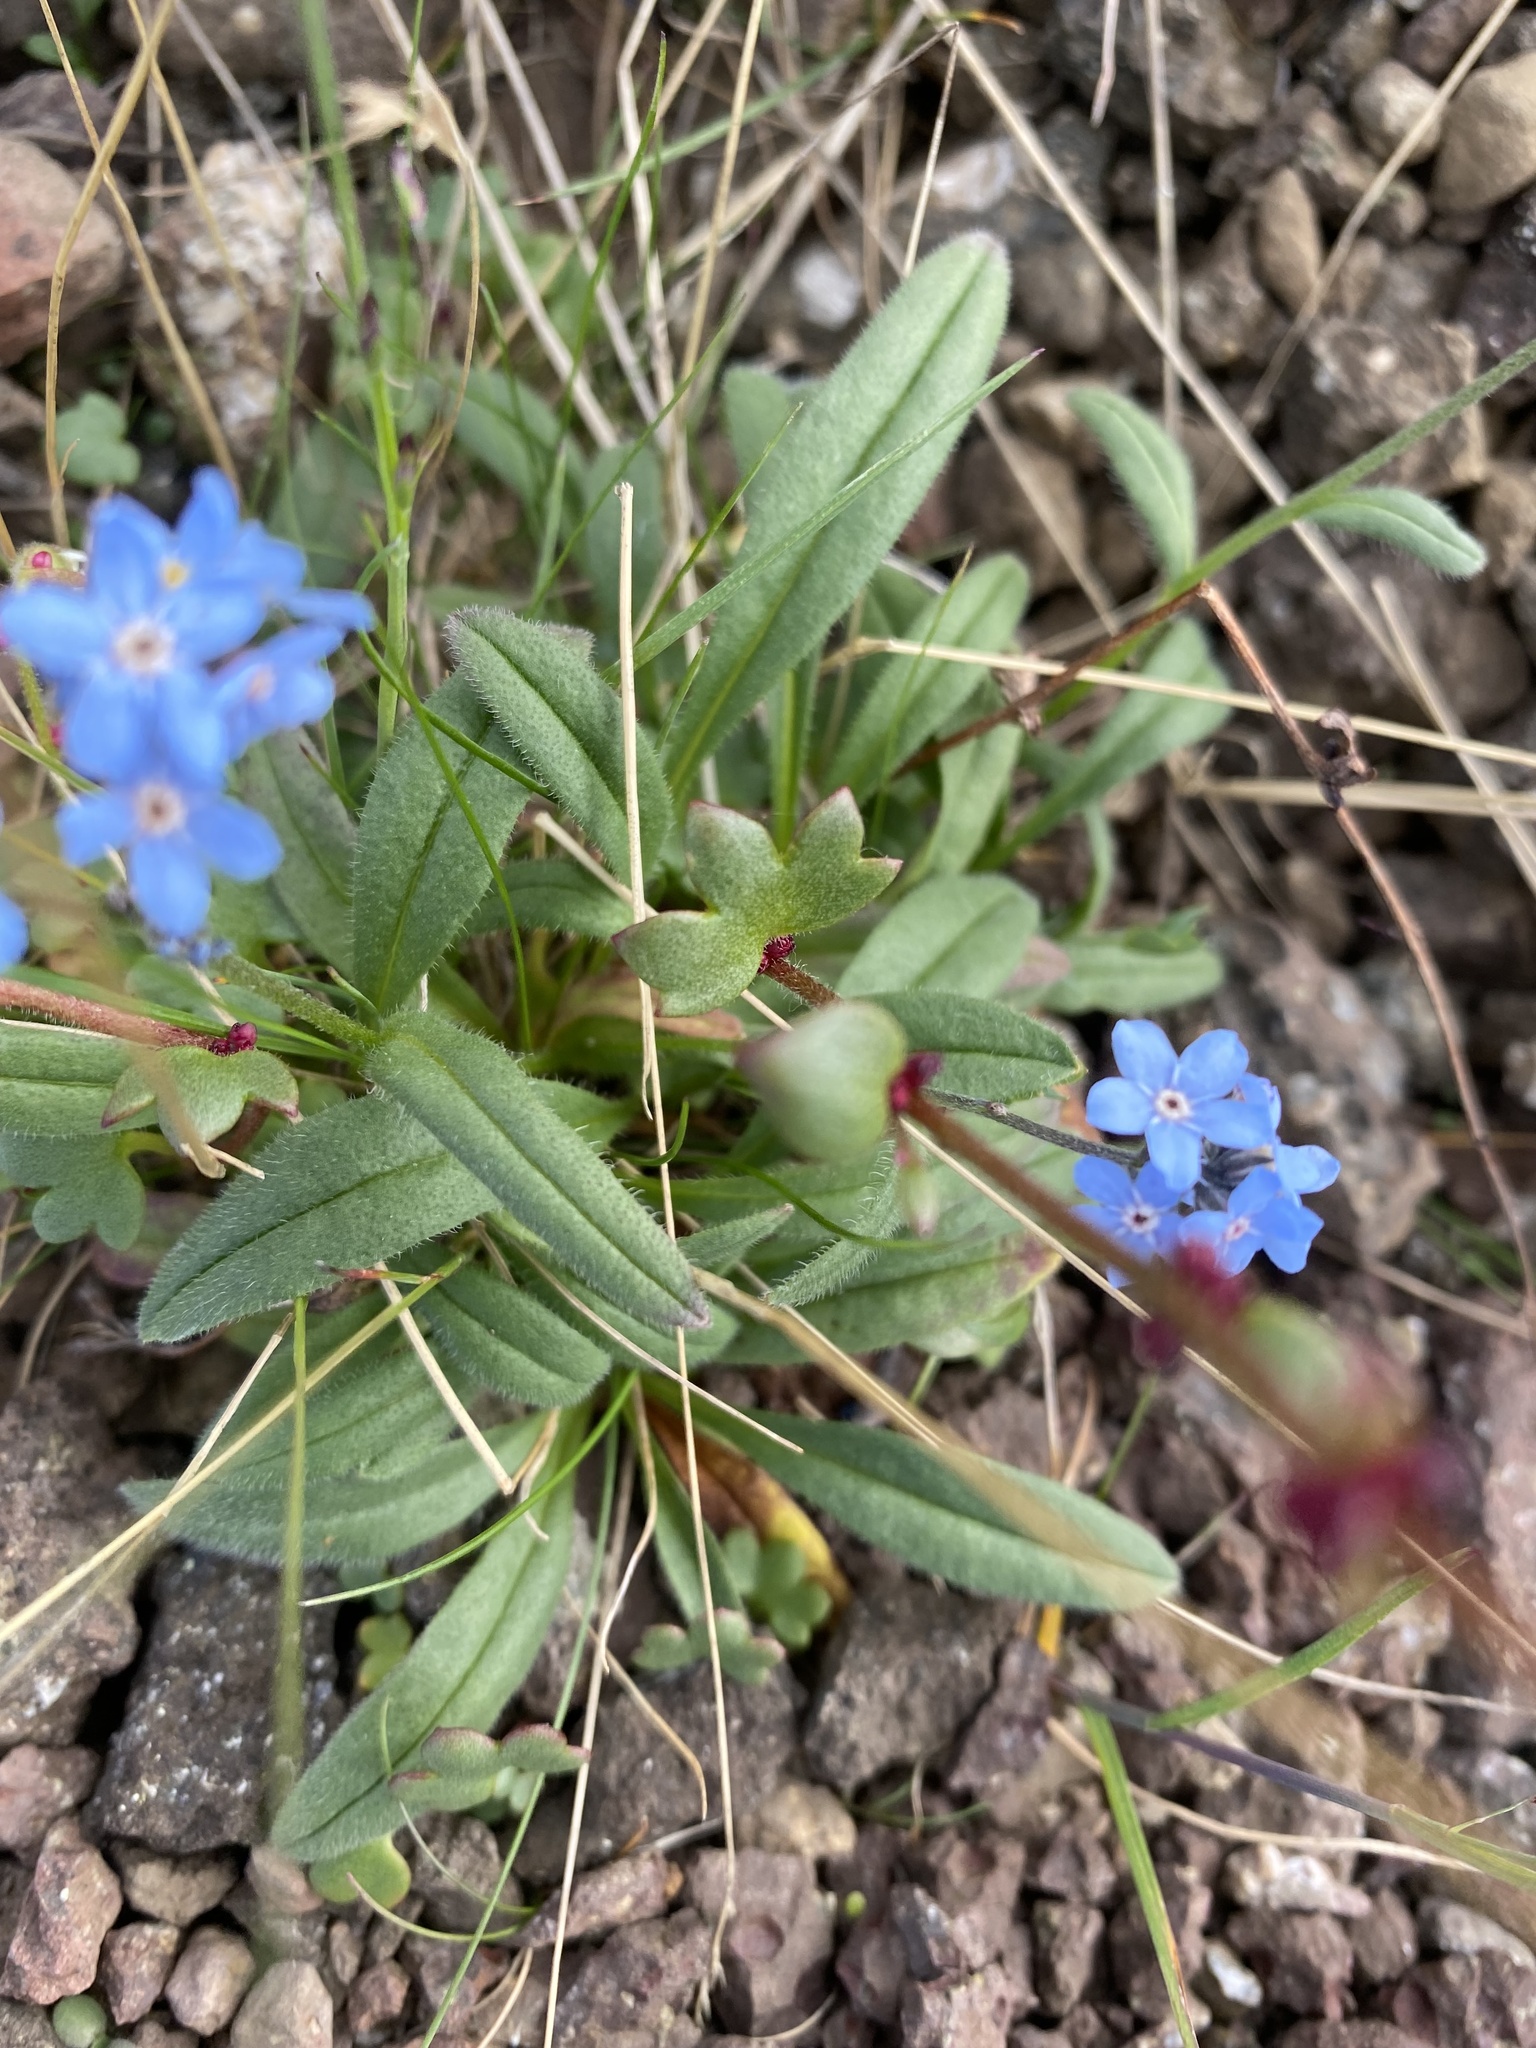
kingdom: Plantae
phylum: Tracheophyta
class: Magnoliopsida
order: Boraginales
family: Boraginaceae
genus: Myosotis
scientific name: Myosotis asiatica
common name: Asian forget-me-not
